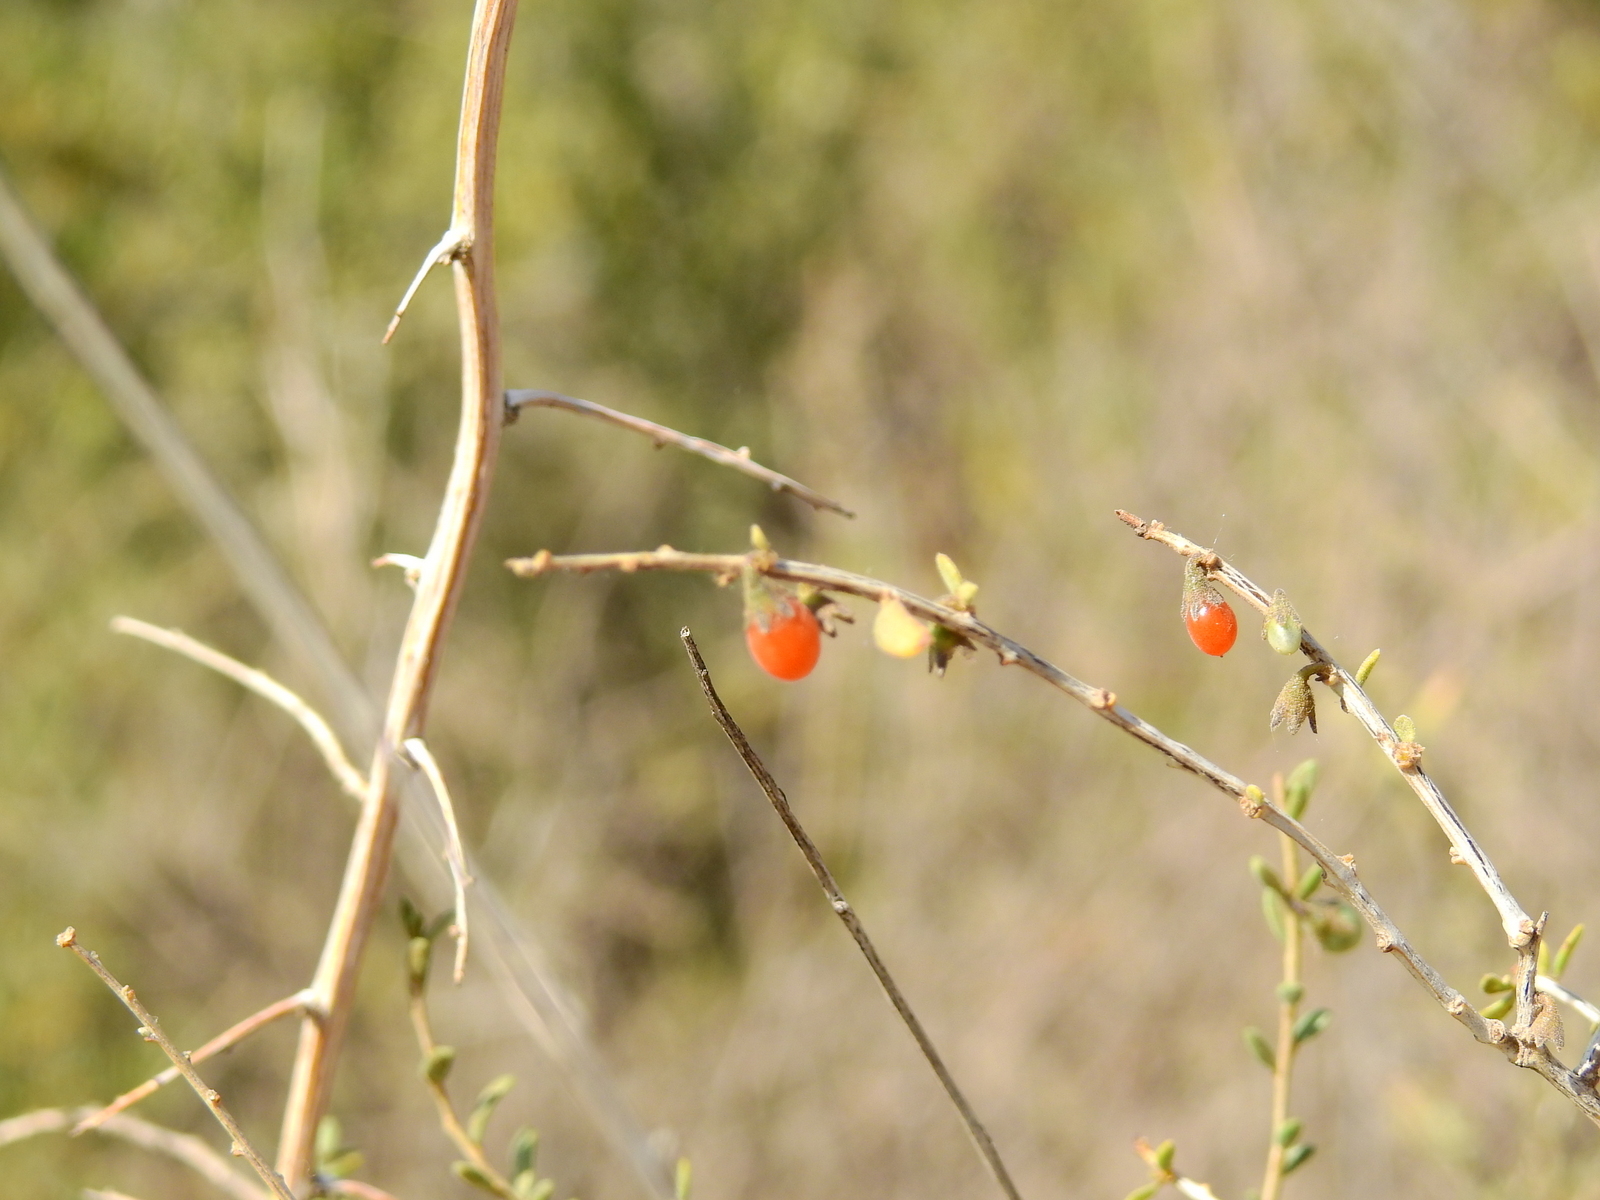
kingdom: Plantae
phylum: Tracheophyta
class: Magnoliopsida
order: Solanales
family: Solanaceae
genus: Lycium
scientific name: Lycium chilense
